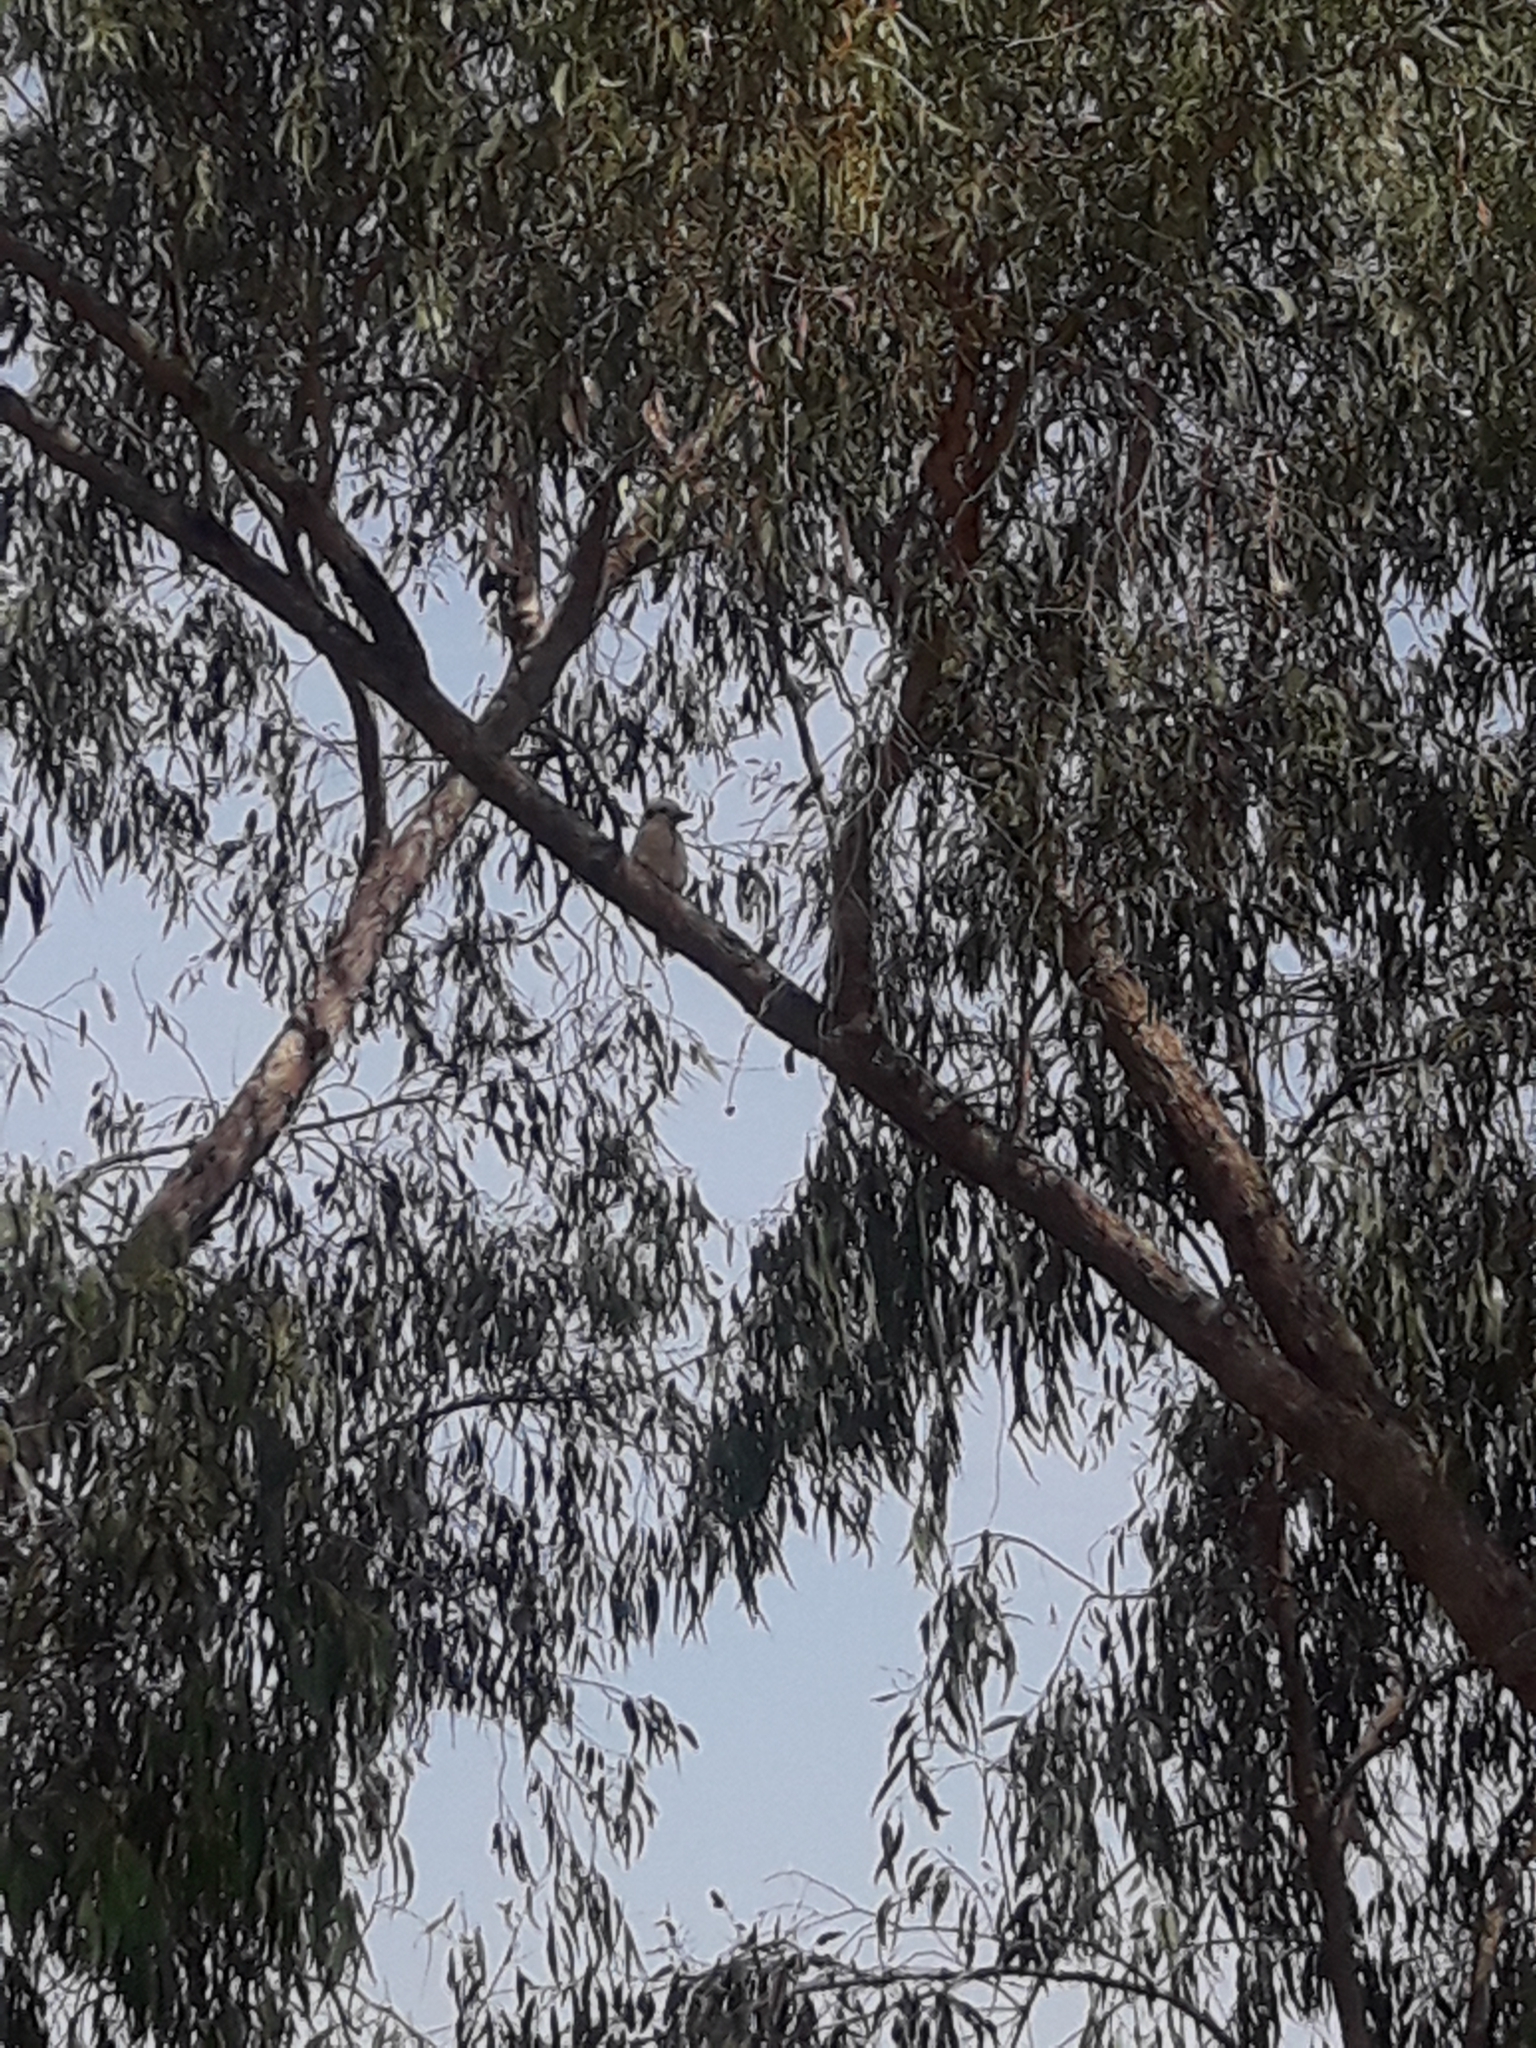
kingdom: Animalia
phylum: Chordata
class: Aves
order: Coraciiformes
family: Alcedinidae
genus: Dacelo
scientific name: Dacelo novaeguineae
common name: Laughing kookaburra
